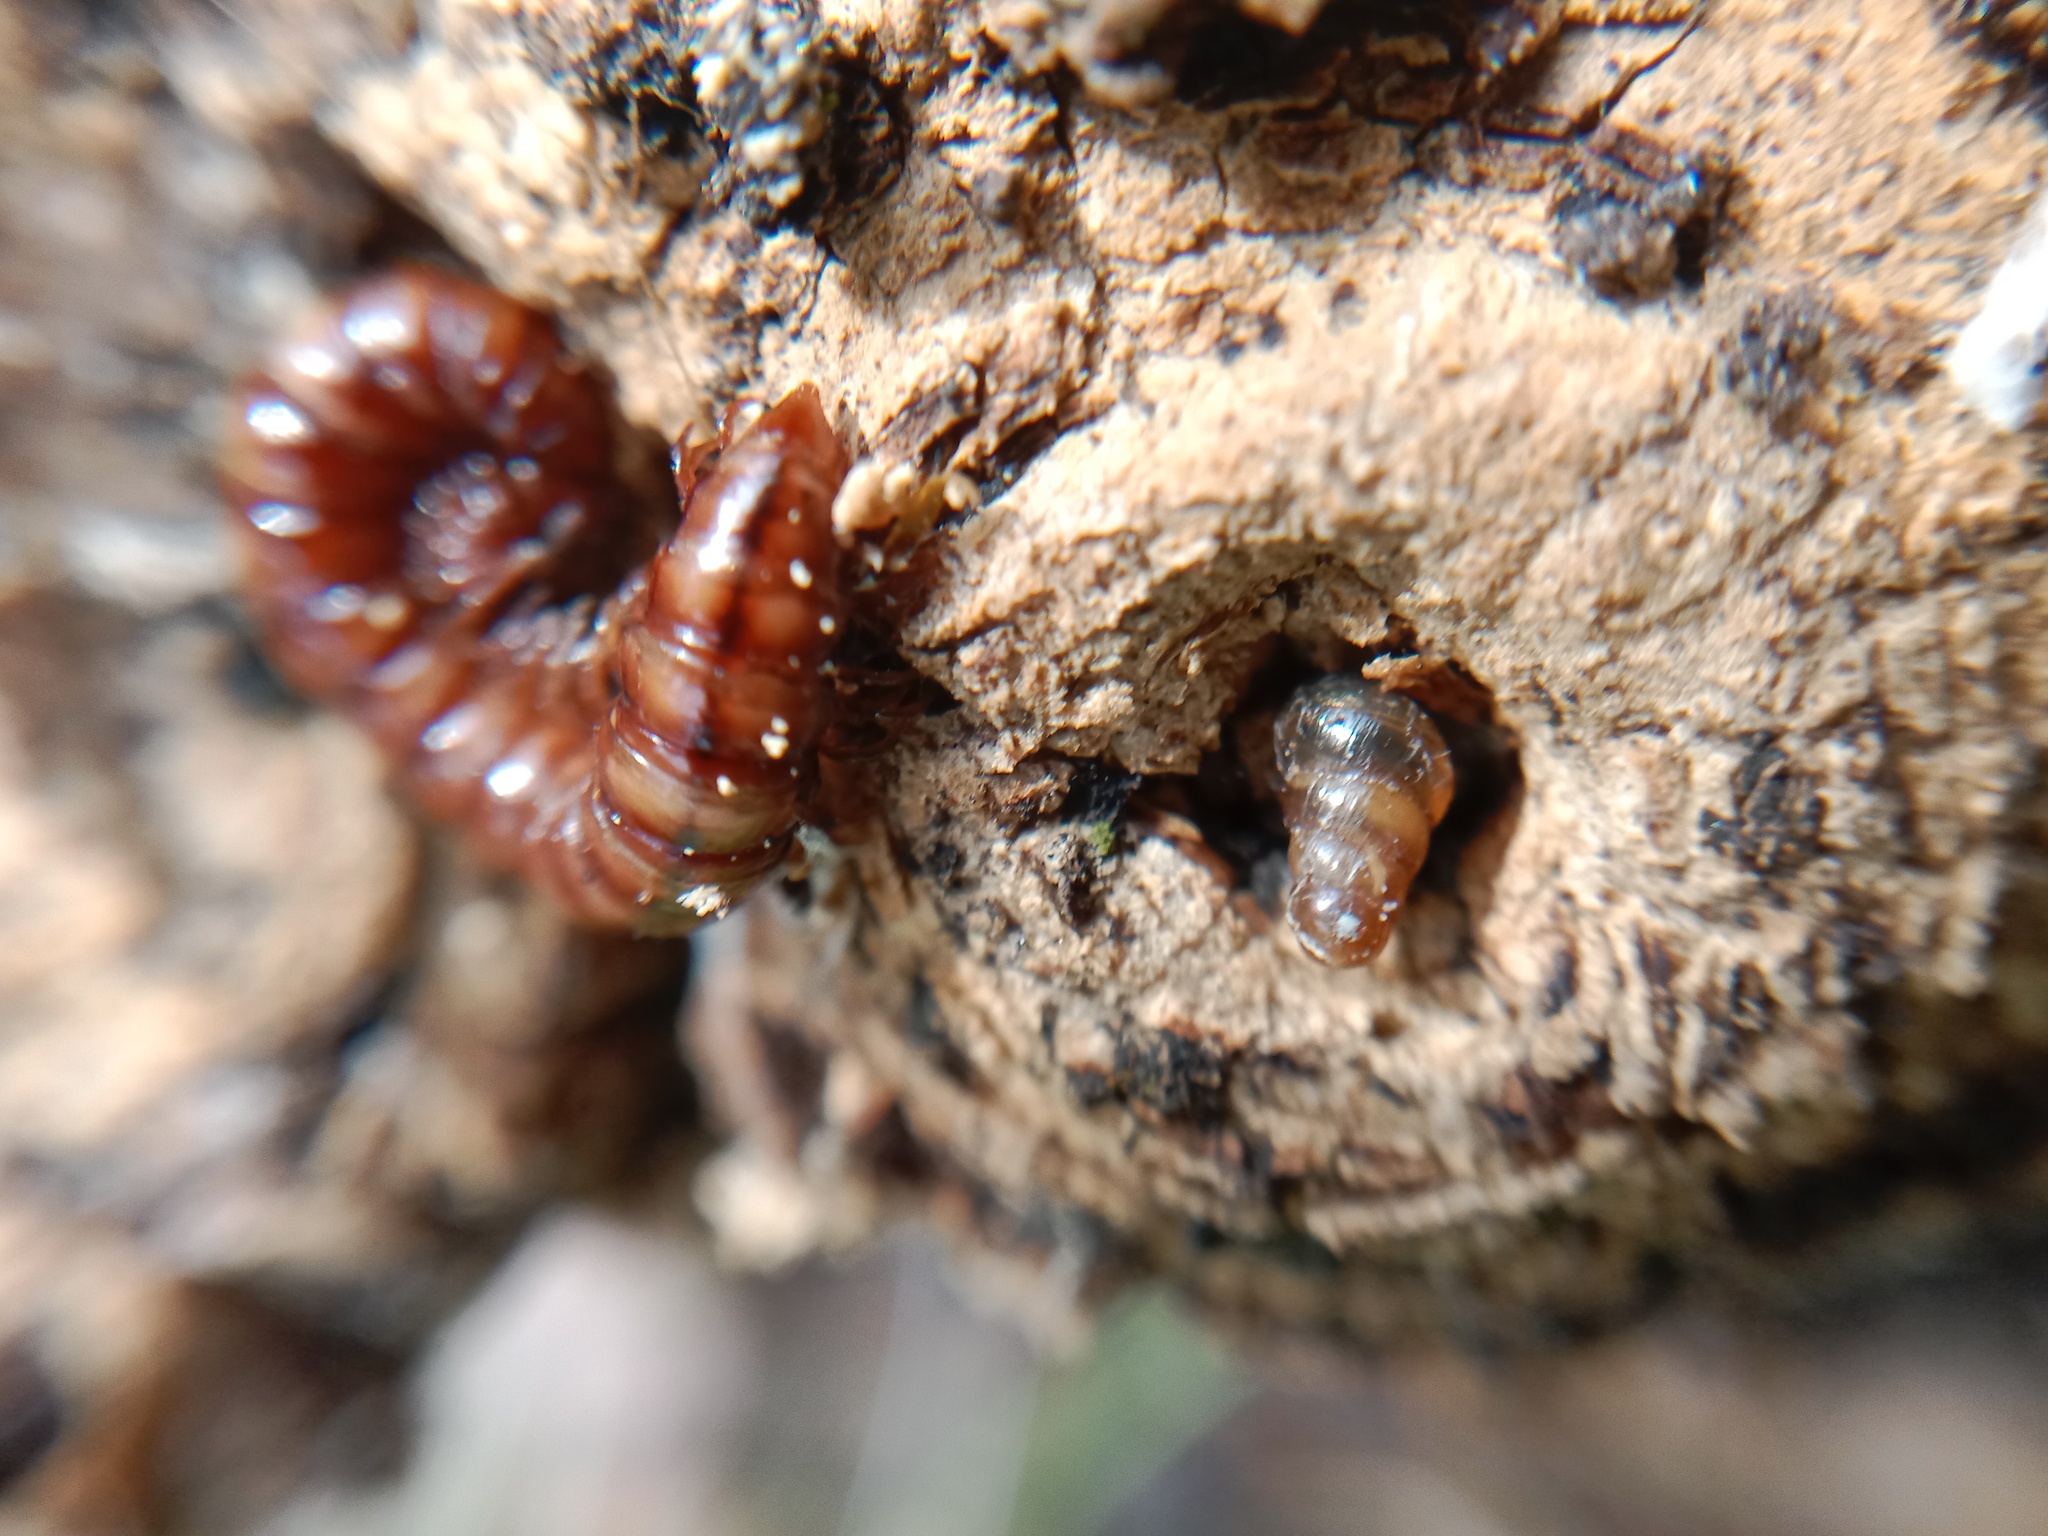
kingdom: Animalia
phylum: Mollusca
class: Gastropoda
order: Stylommatophora
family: Clausiliidae
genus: Cochlodina
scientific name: Cochlodina laminata
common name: Plaited door snail
